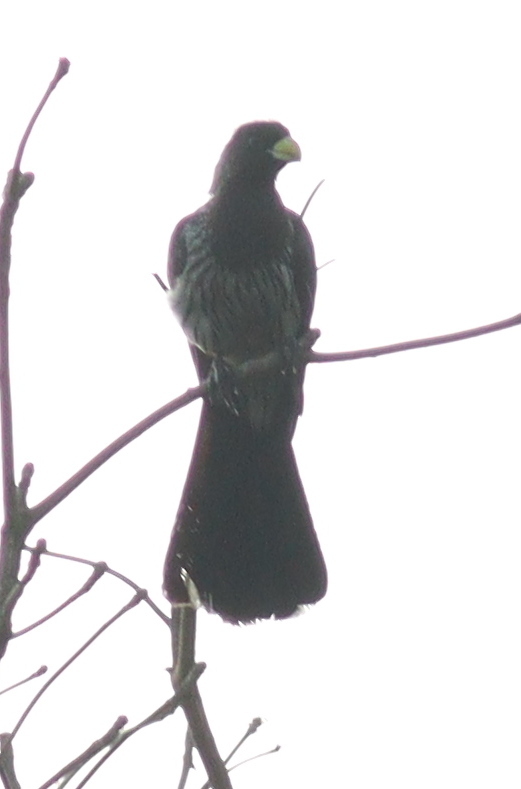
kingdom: Animalia
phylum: Chordata
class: Aves
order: Musophagiformes
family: Musophagidae
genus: Crinifer
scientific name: Crinifer piscator
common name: Western plantain-eater
